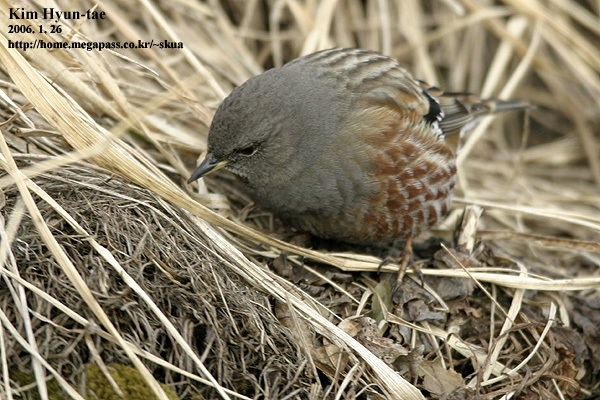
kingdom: Animalia
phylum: Chordata
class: Aves
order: Passeriformes
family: Prunellidae
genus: Prunella
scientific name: Prunella collaris
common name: Alpine accentor
